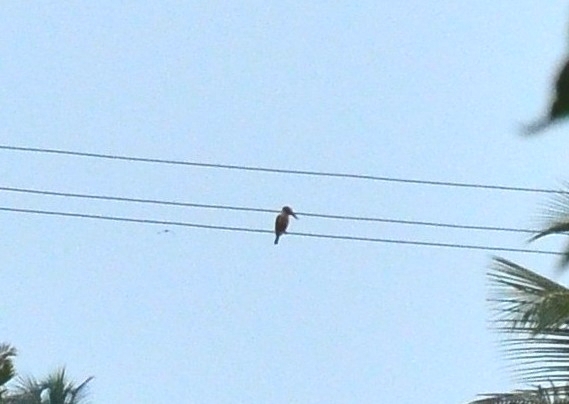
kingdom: Animalia
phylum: Chordata
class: Aves
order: Coraciiformes
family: Alcedinidae
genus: Pelargopsis
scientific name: Pelargopsis capensis
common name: Stork-billed kingfisher
